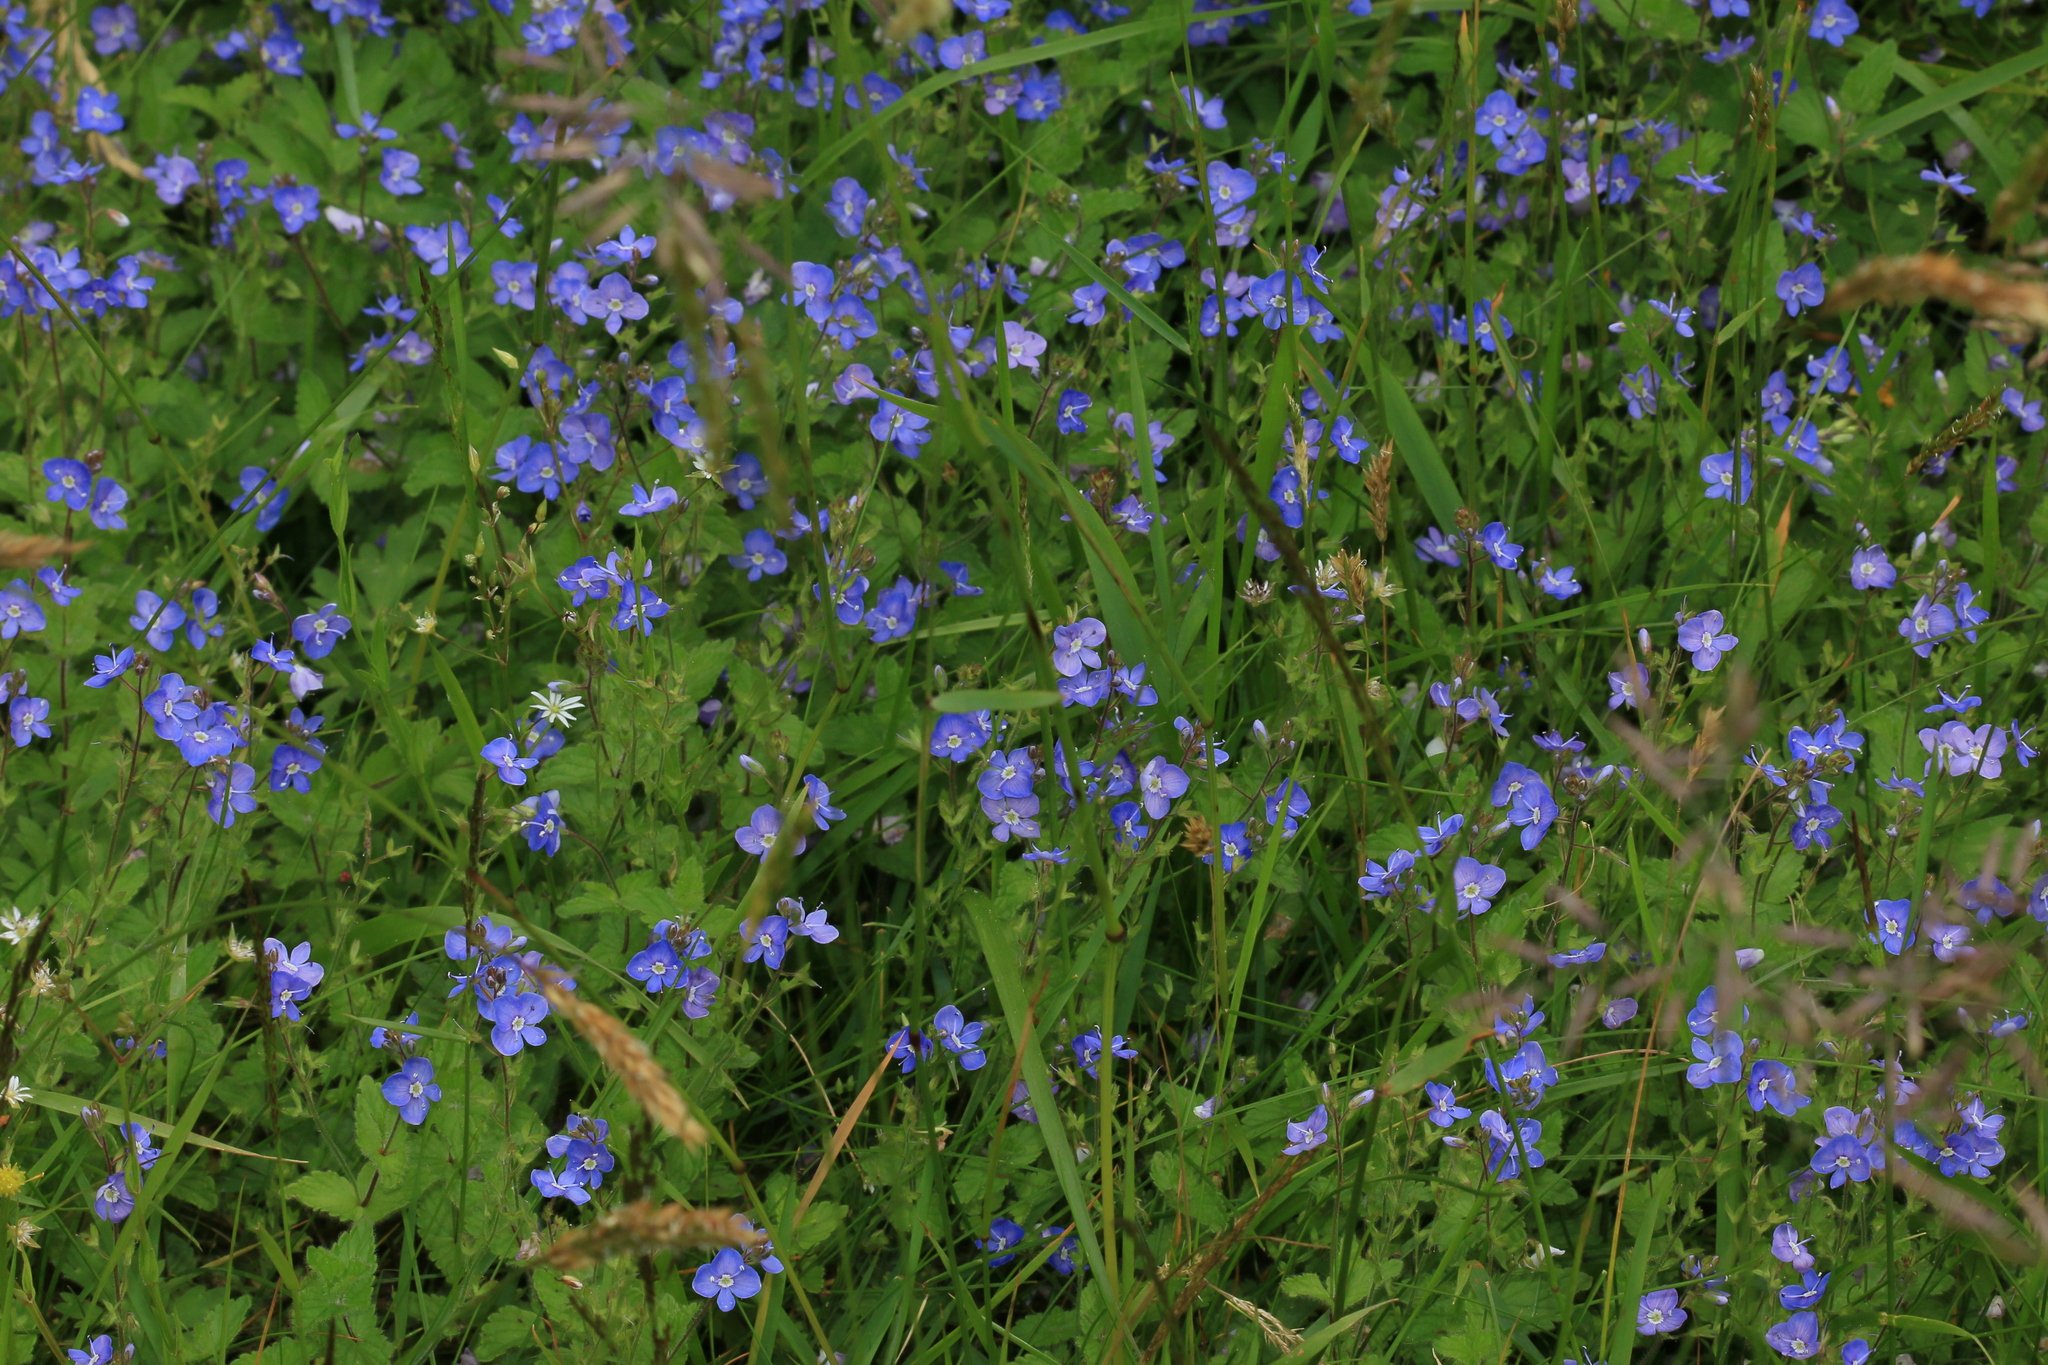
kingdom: Plantae
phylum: Tracheophyta
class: Magnoliopsida
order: Lamiales
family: Plantaginaceae
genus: Veronica
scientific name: Veronica chamaedrys
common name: Germander speedwell
